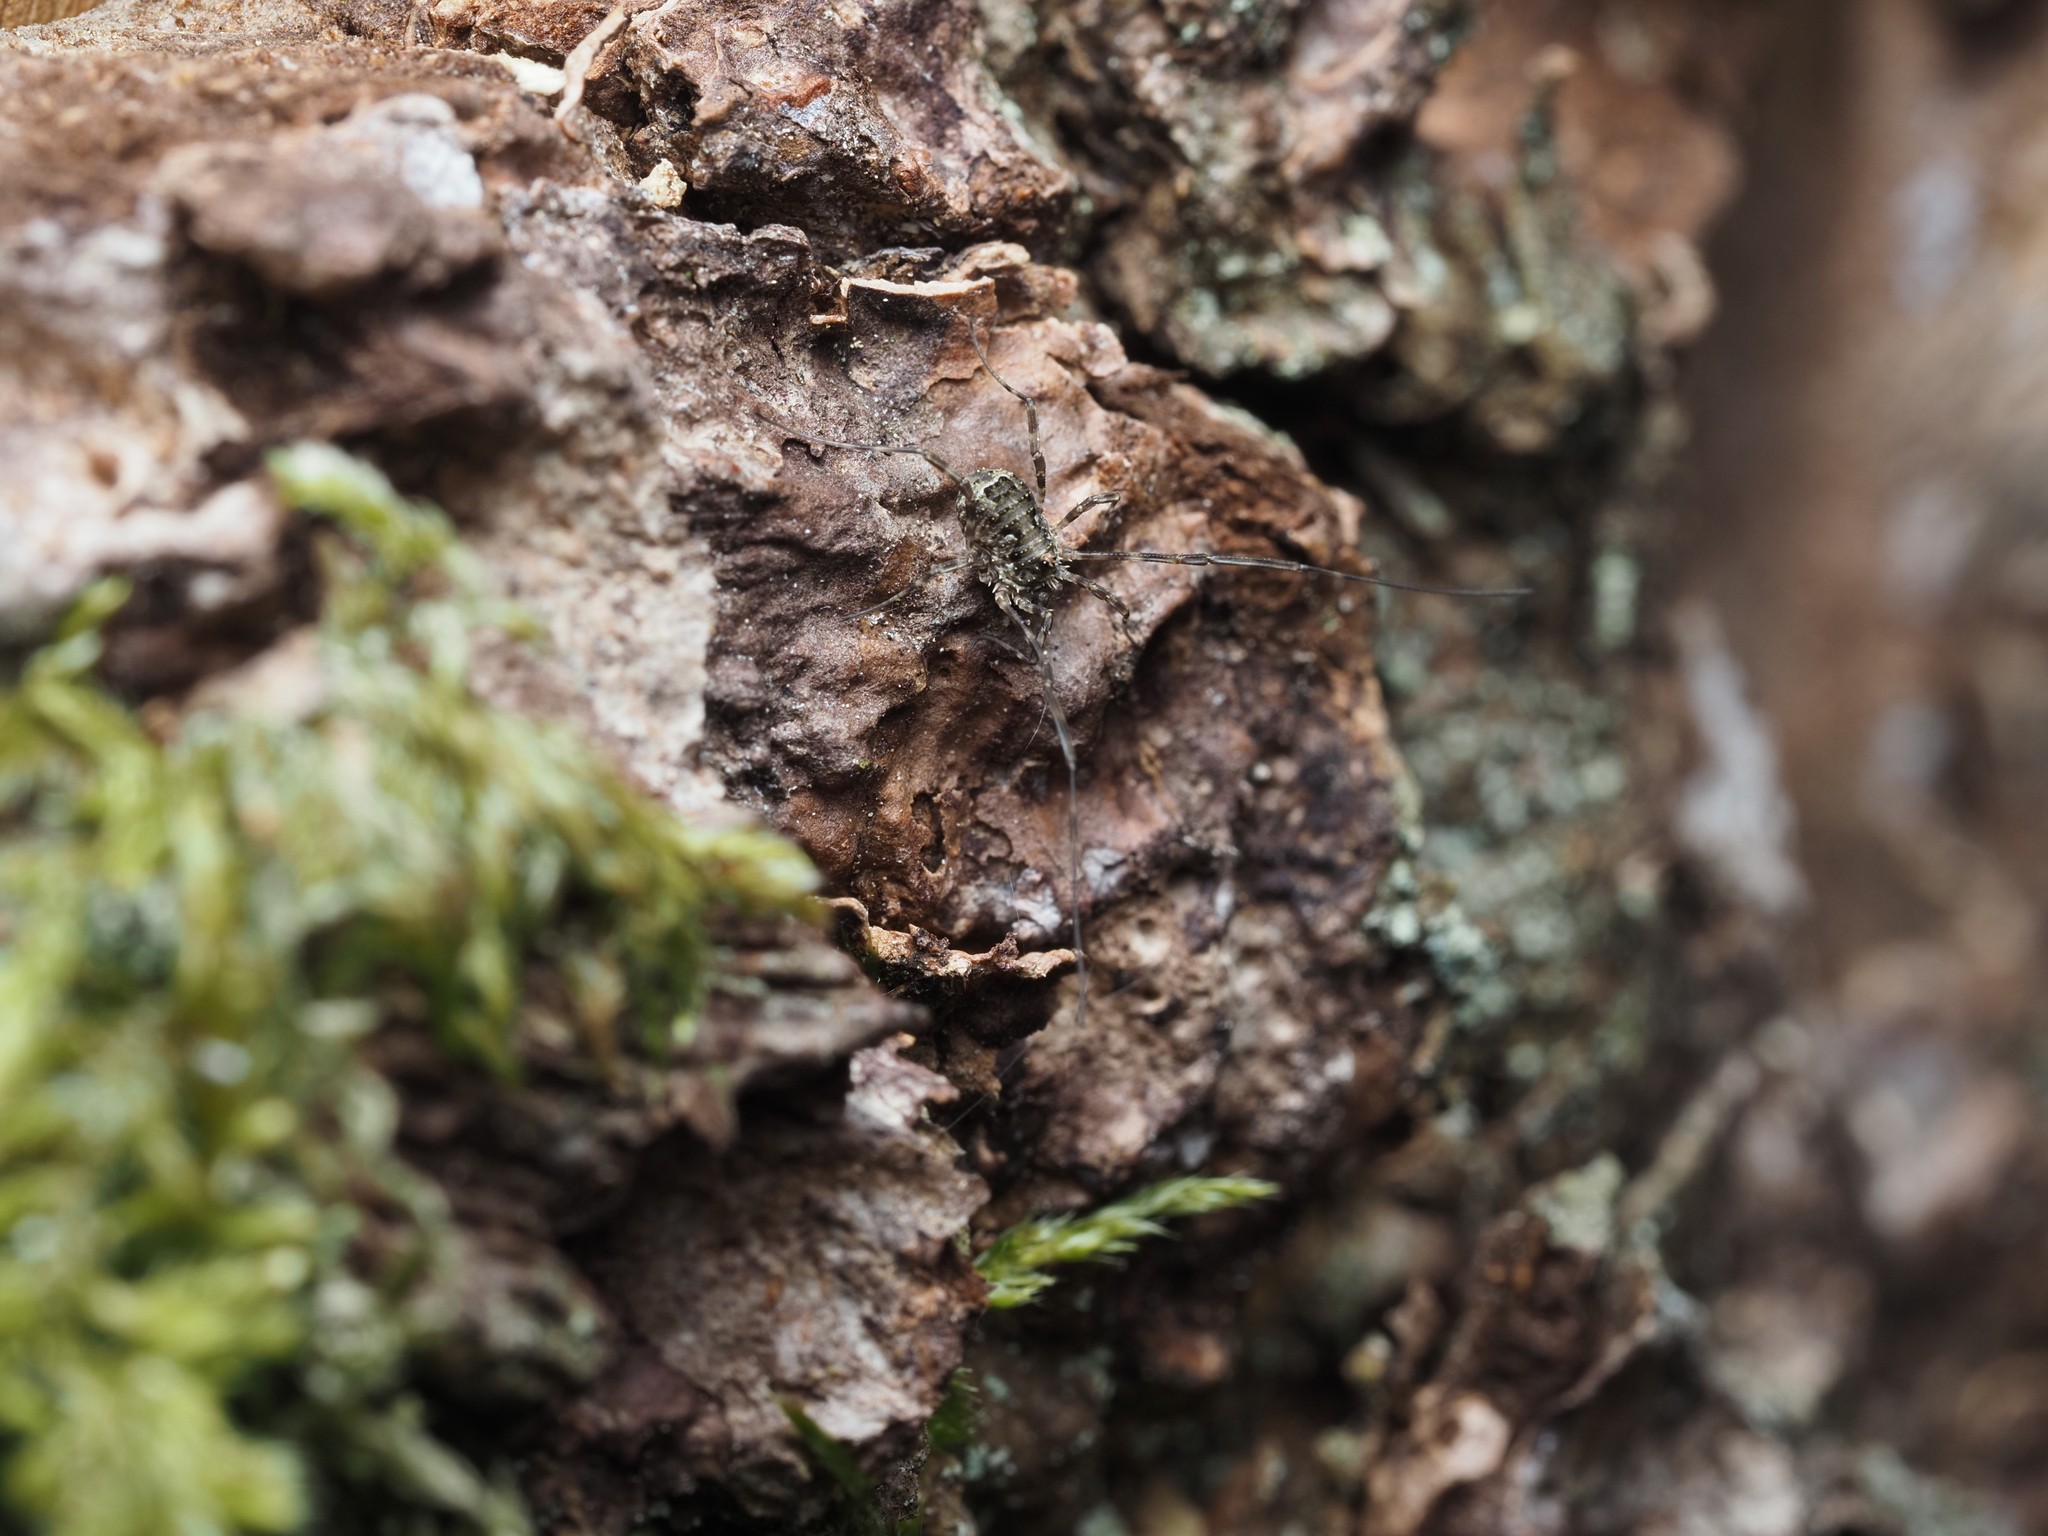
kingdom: Animalia
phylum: Arthropoda
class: Arachnida
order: Opiliones
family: Phalangiidae
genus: Lacinius
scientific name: Lacinius dentiger
